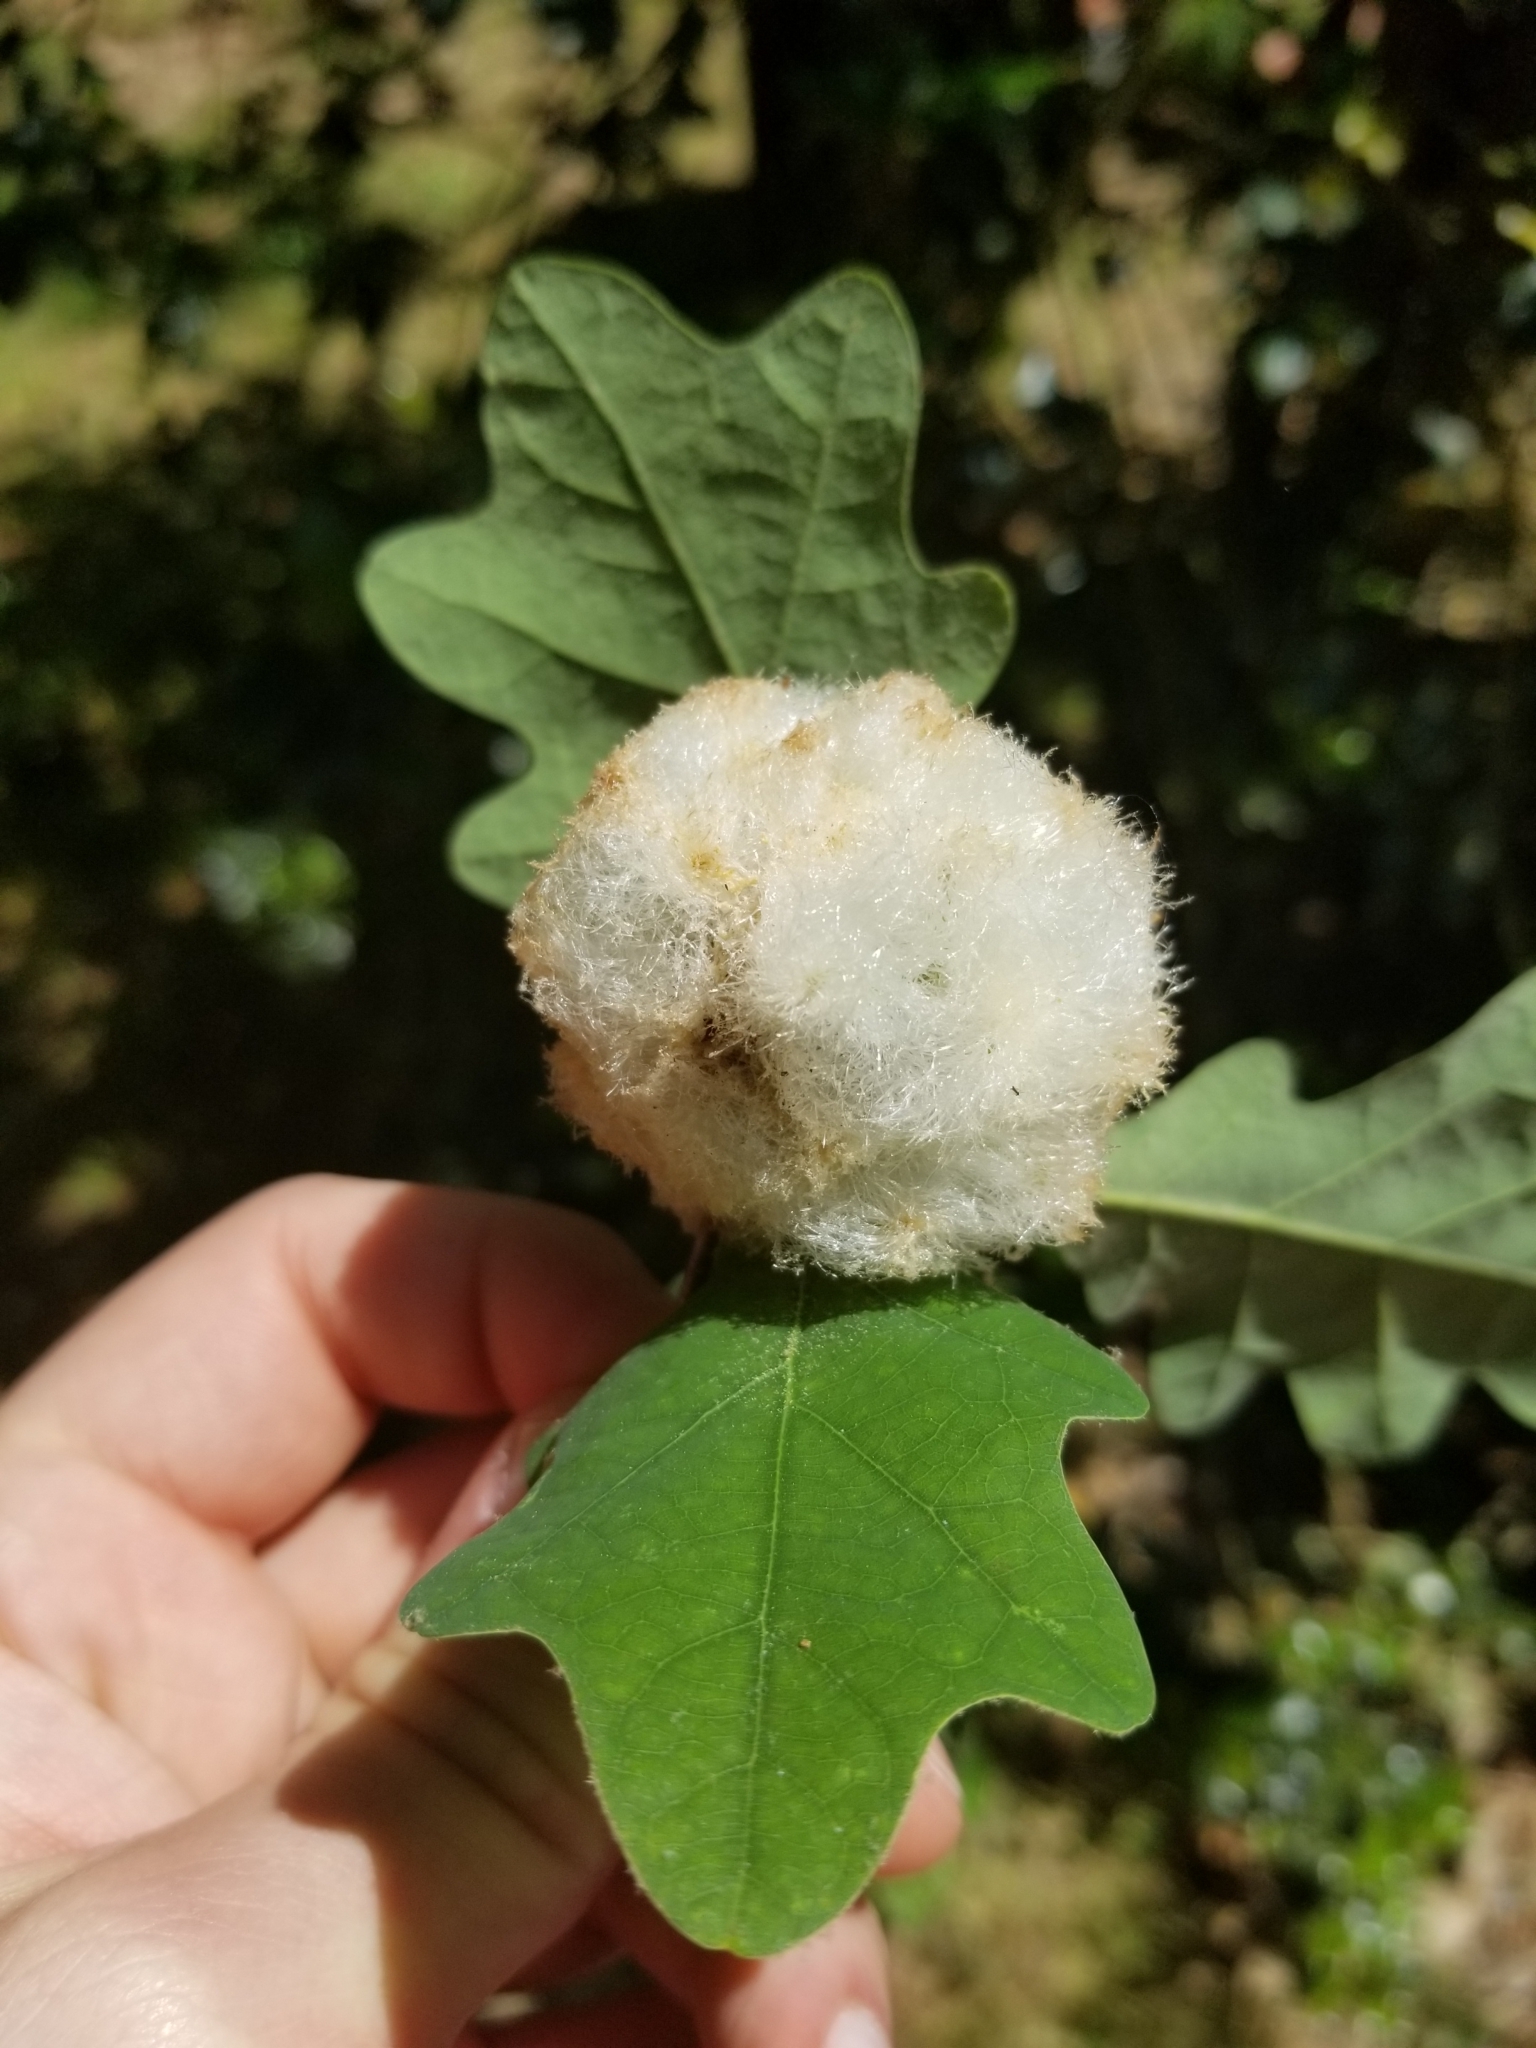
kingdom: Animalia
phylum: Arthropoda
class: Insecta
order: Hymenoptera
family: Cynipidae
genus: Callirhytis
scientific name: Callirhytis
